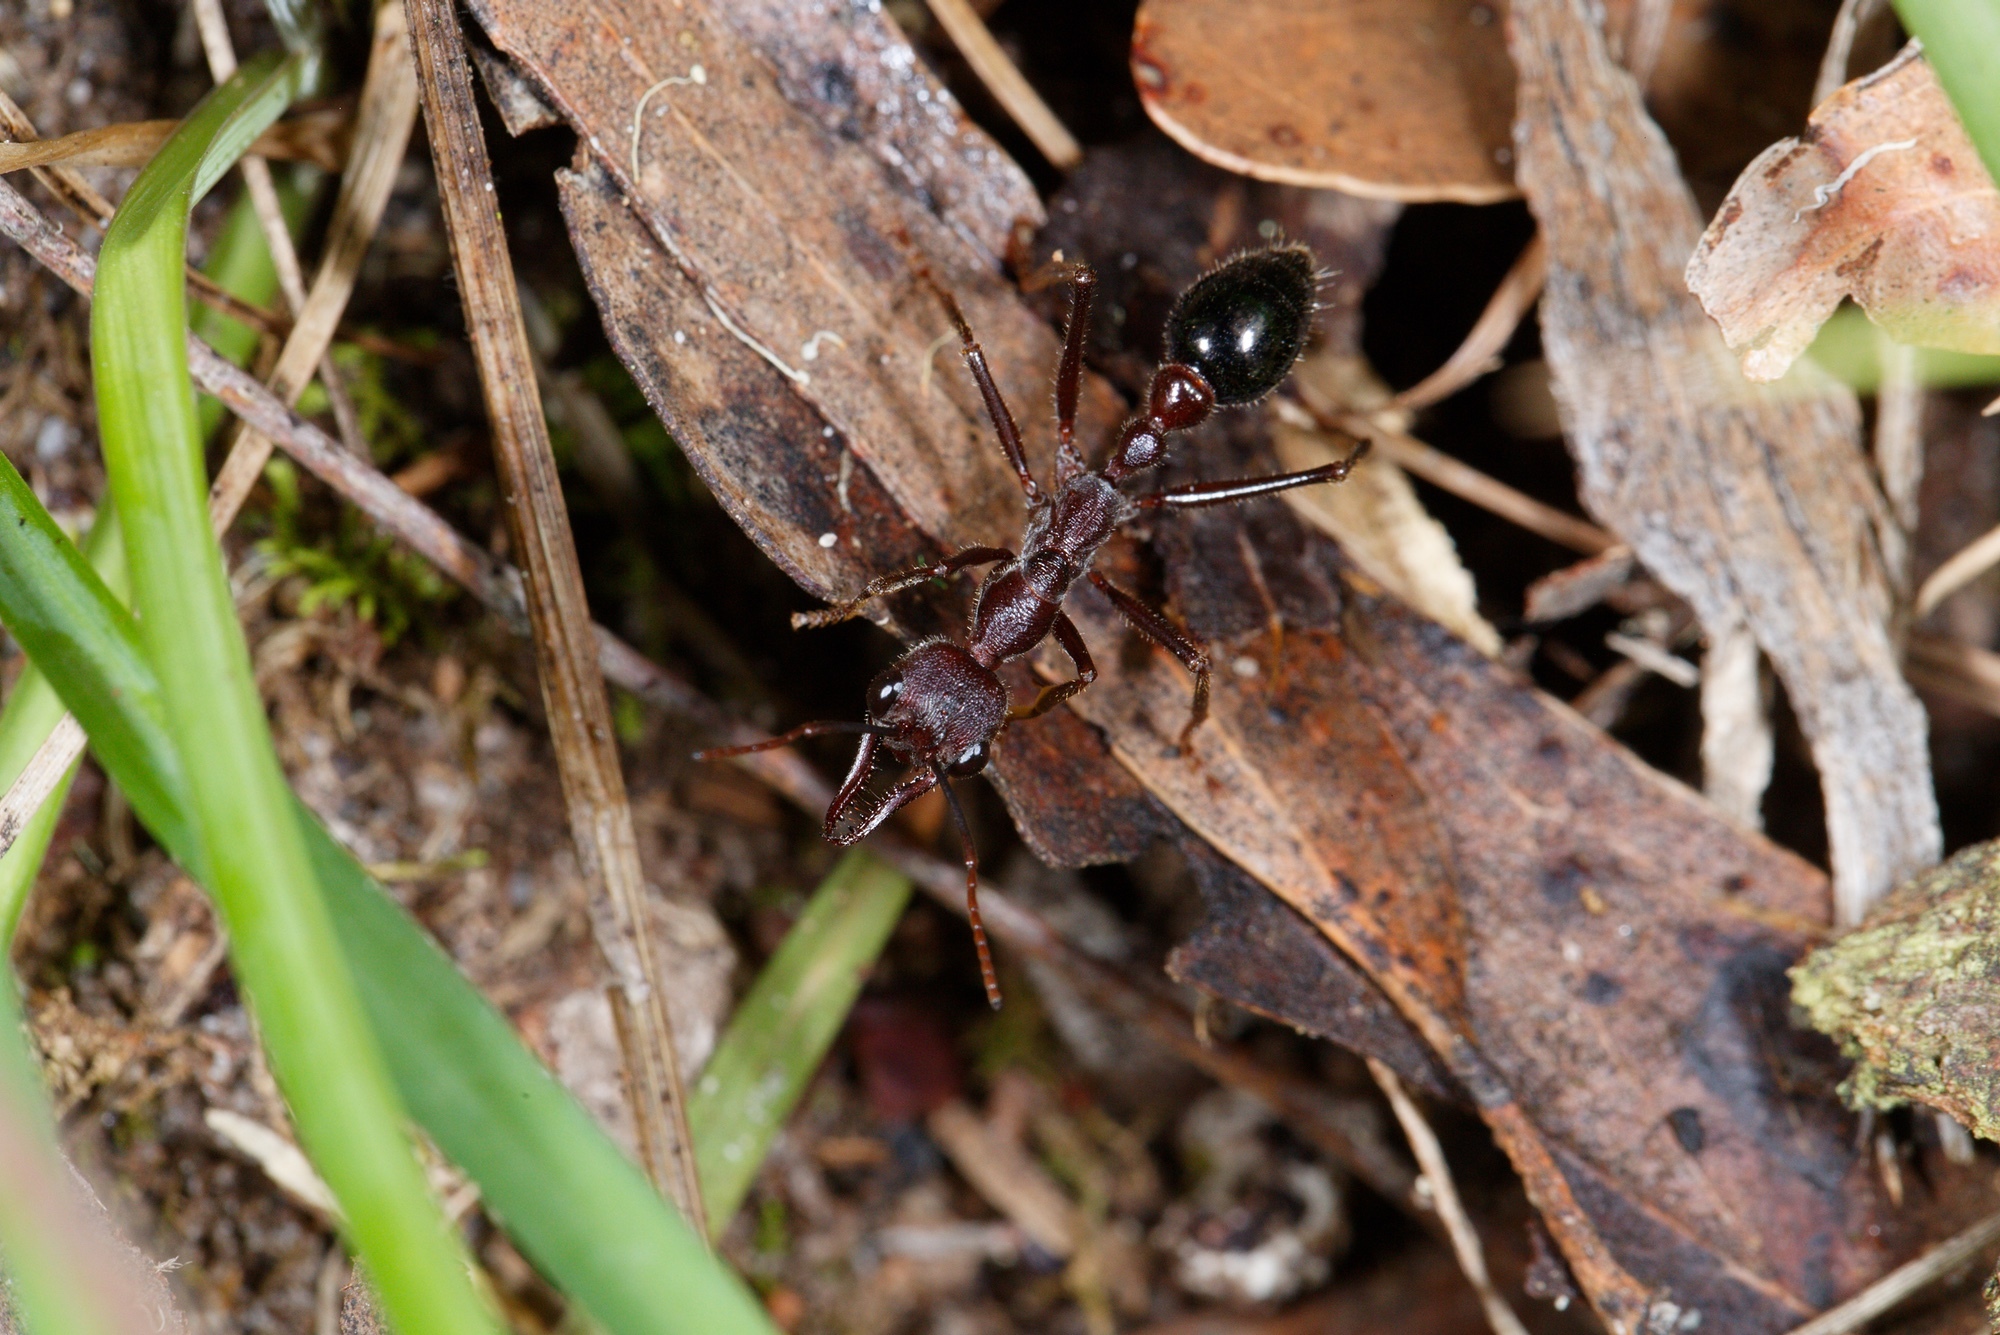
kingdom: Animalia
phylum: Arthropoda
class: Insecta
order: Hymenoptera
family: Formicidae
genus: Myrmecia
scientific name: Myrmecia forficata
